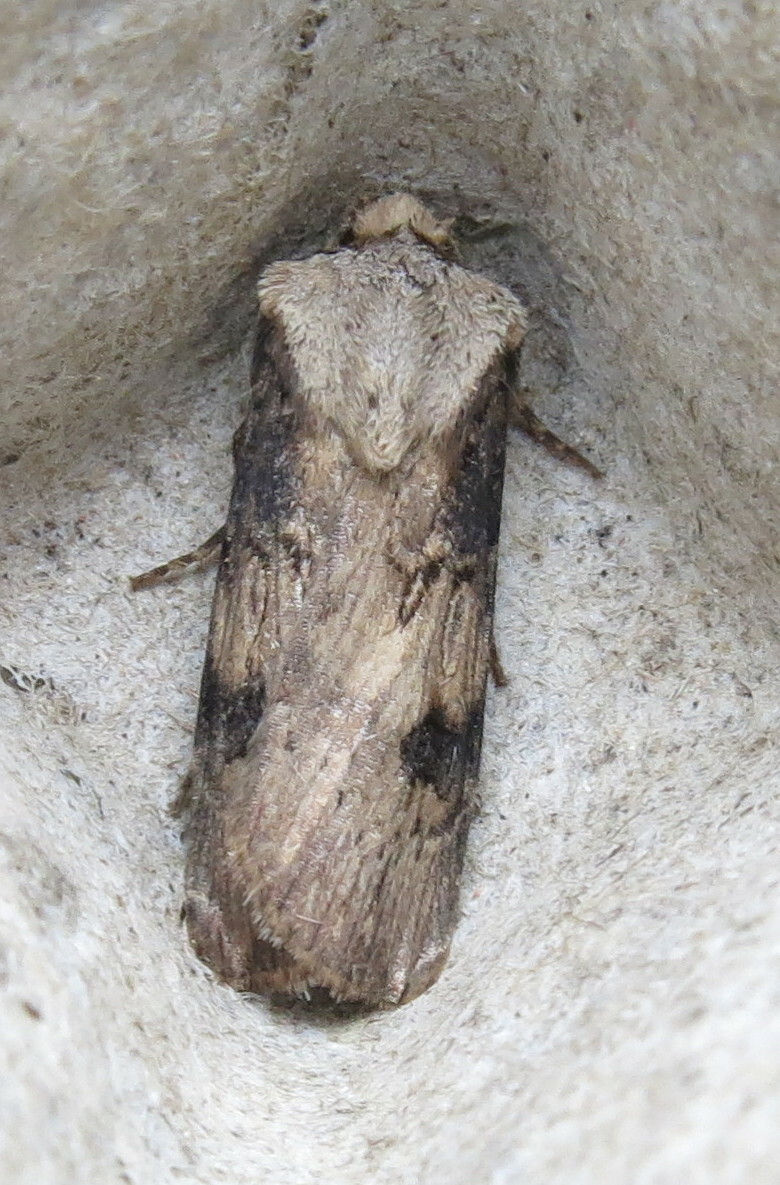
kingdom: Animalia
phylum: Arthropoda
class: Insecta
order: Lepidoptera
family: Noctuidae
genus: Agrotis
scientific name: Agrotis puta
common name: Shuttle-shaped dart
